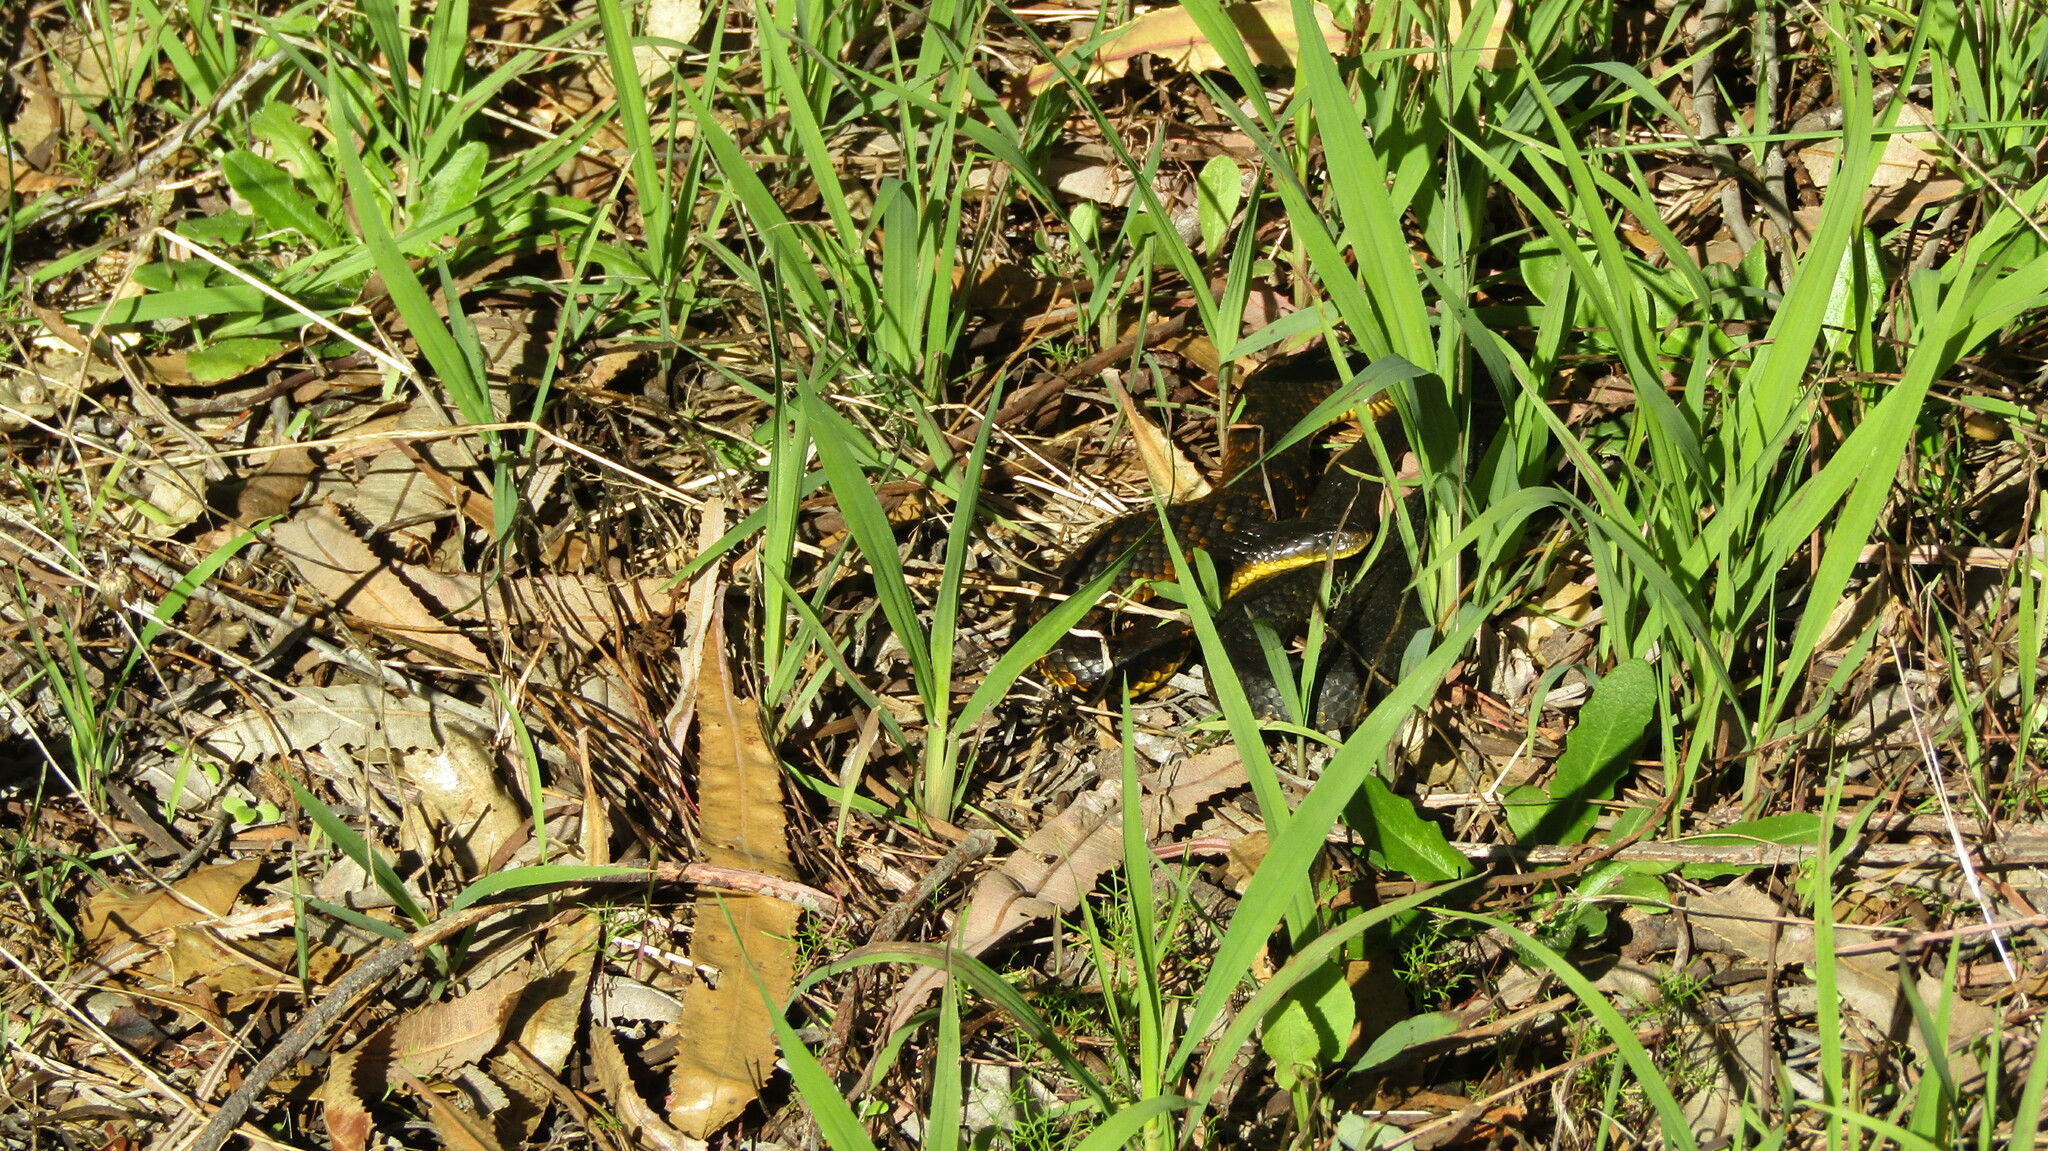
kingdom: Animalia
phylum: Chordata
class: Squamata
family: Elapidae
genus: Notechis
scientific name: Notechis scutatus
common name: Mainland tiger snake
